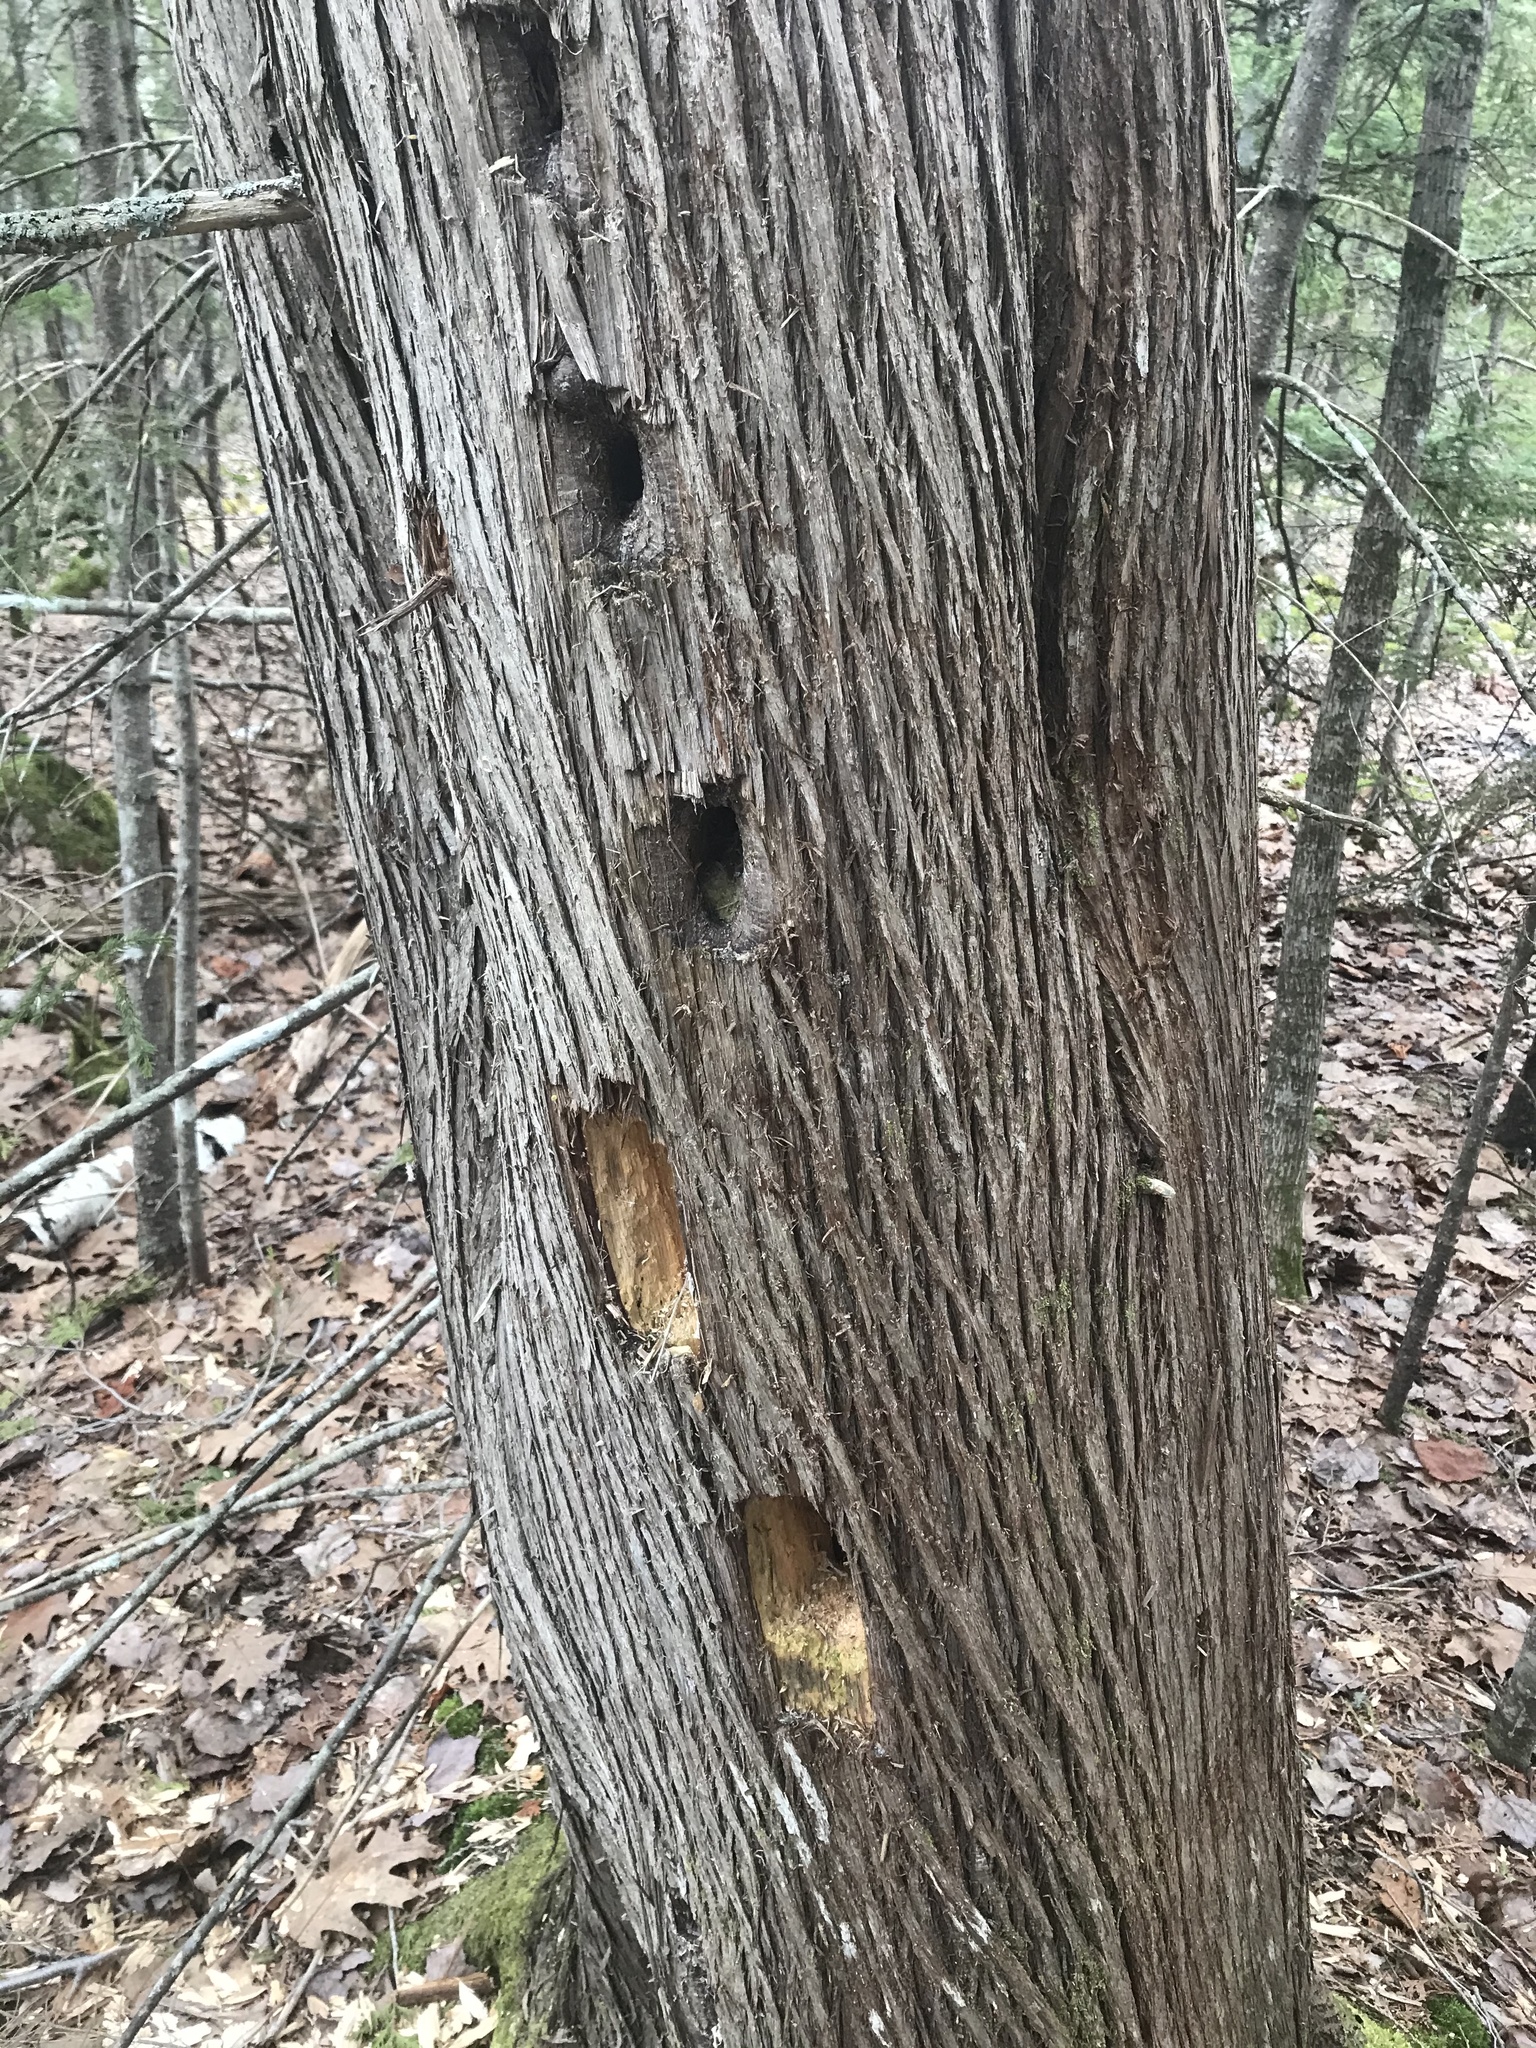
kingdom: Animalia
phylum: Chordata
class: Aves
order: Piciformes
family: Picidae
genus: Dryocopus
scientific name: Dryocopus pileatus
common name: Pileated woodpecker
